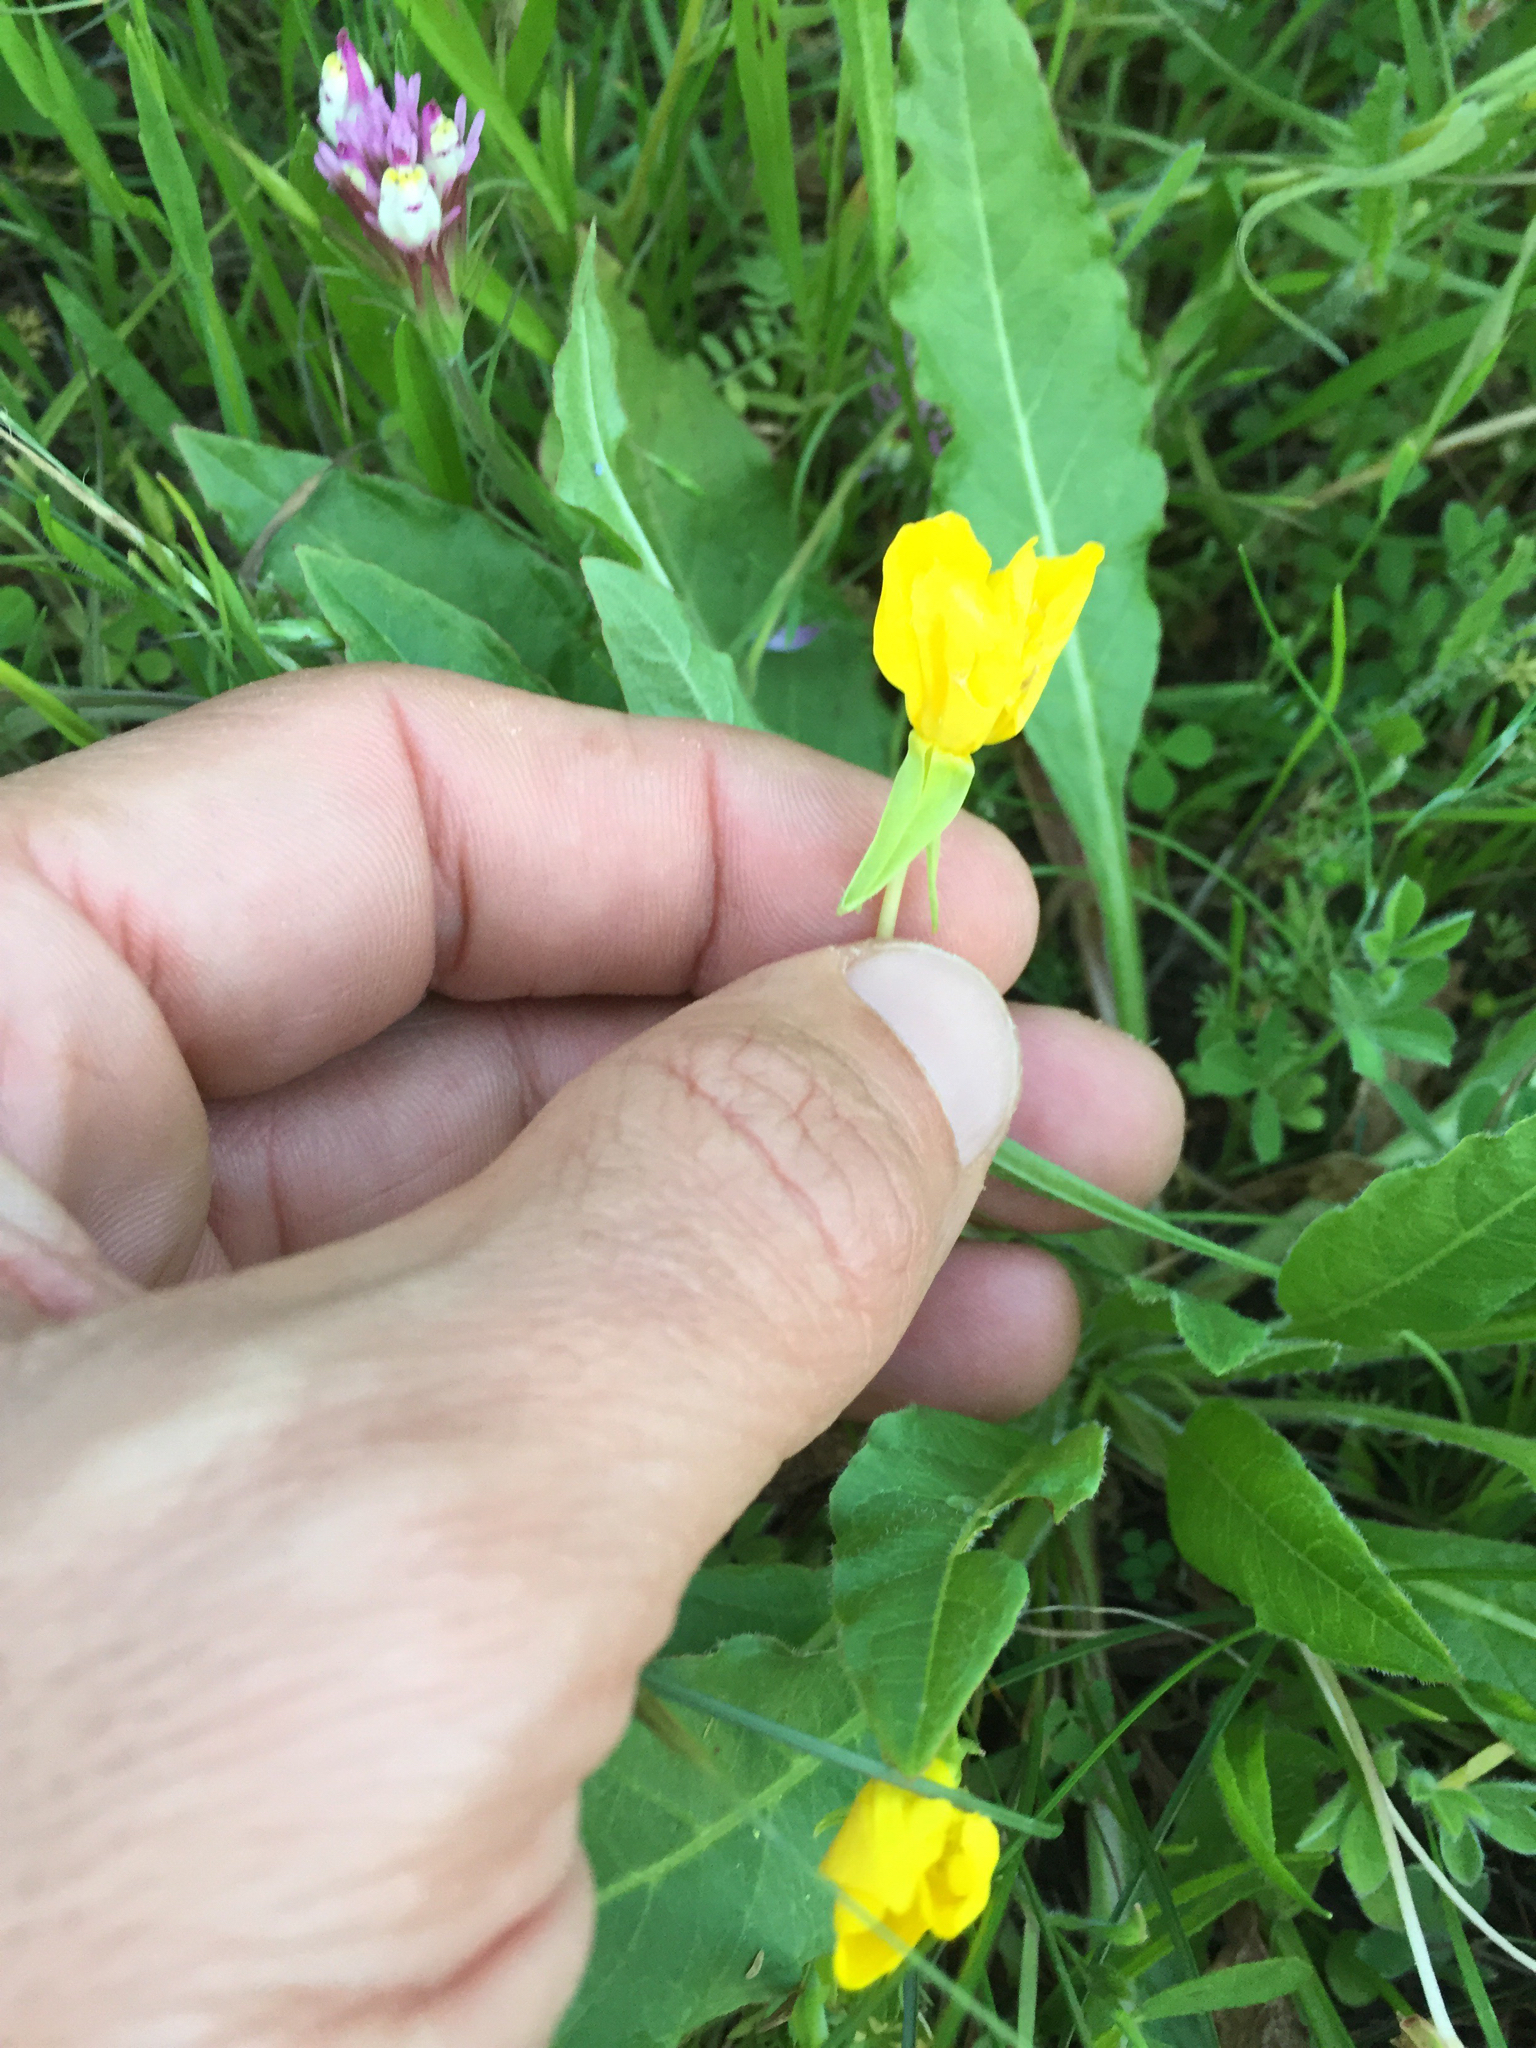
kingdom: Plantae
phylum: Tracheophyta
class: Magnoliopsida
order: Myrtales
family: Onagraceae
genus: Taraxia
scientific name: Taraxia ovata
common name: Goldeneggs
